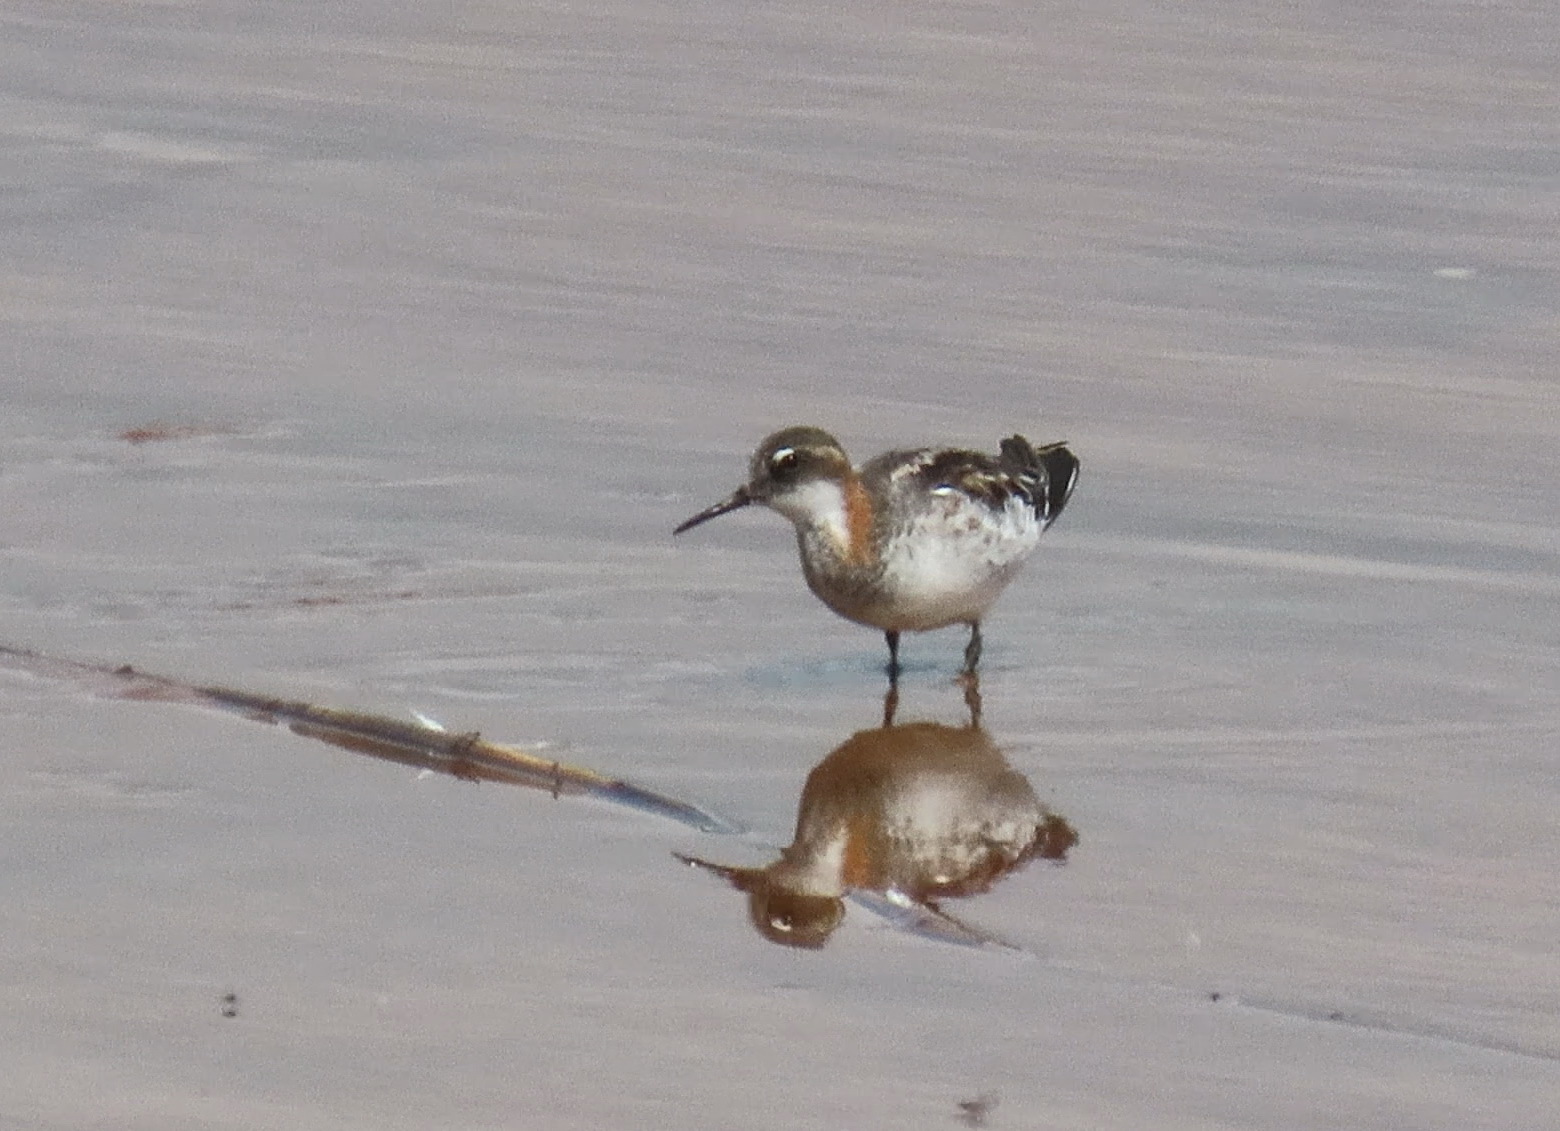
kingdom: Animalia
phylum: Chordata
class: Aves
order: Charadriiformes
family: Scolopacidae
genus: Phalaropus
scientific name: Phalaropus lobatus
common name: Red-necked phalarope
